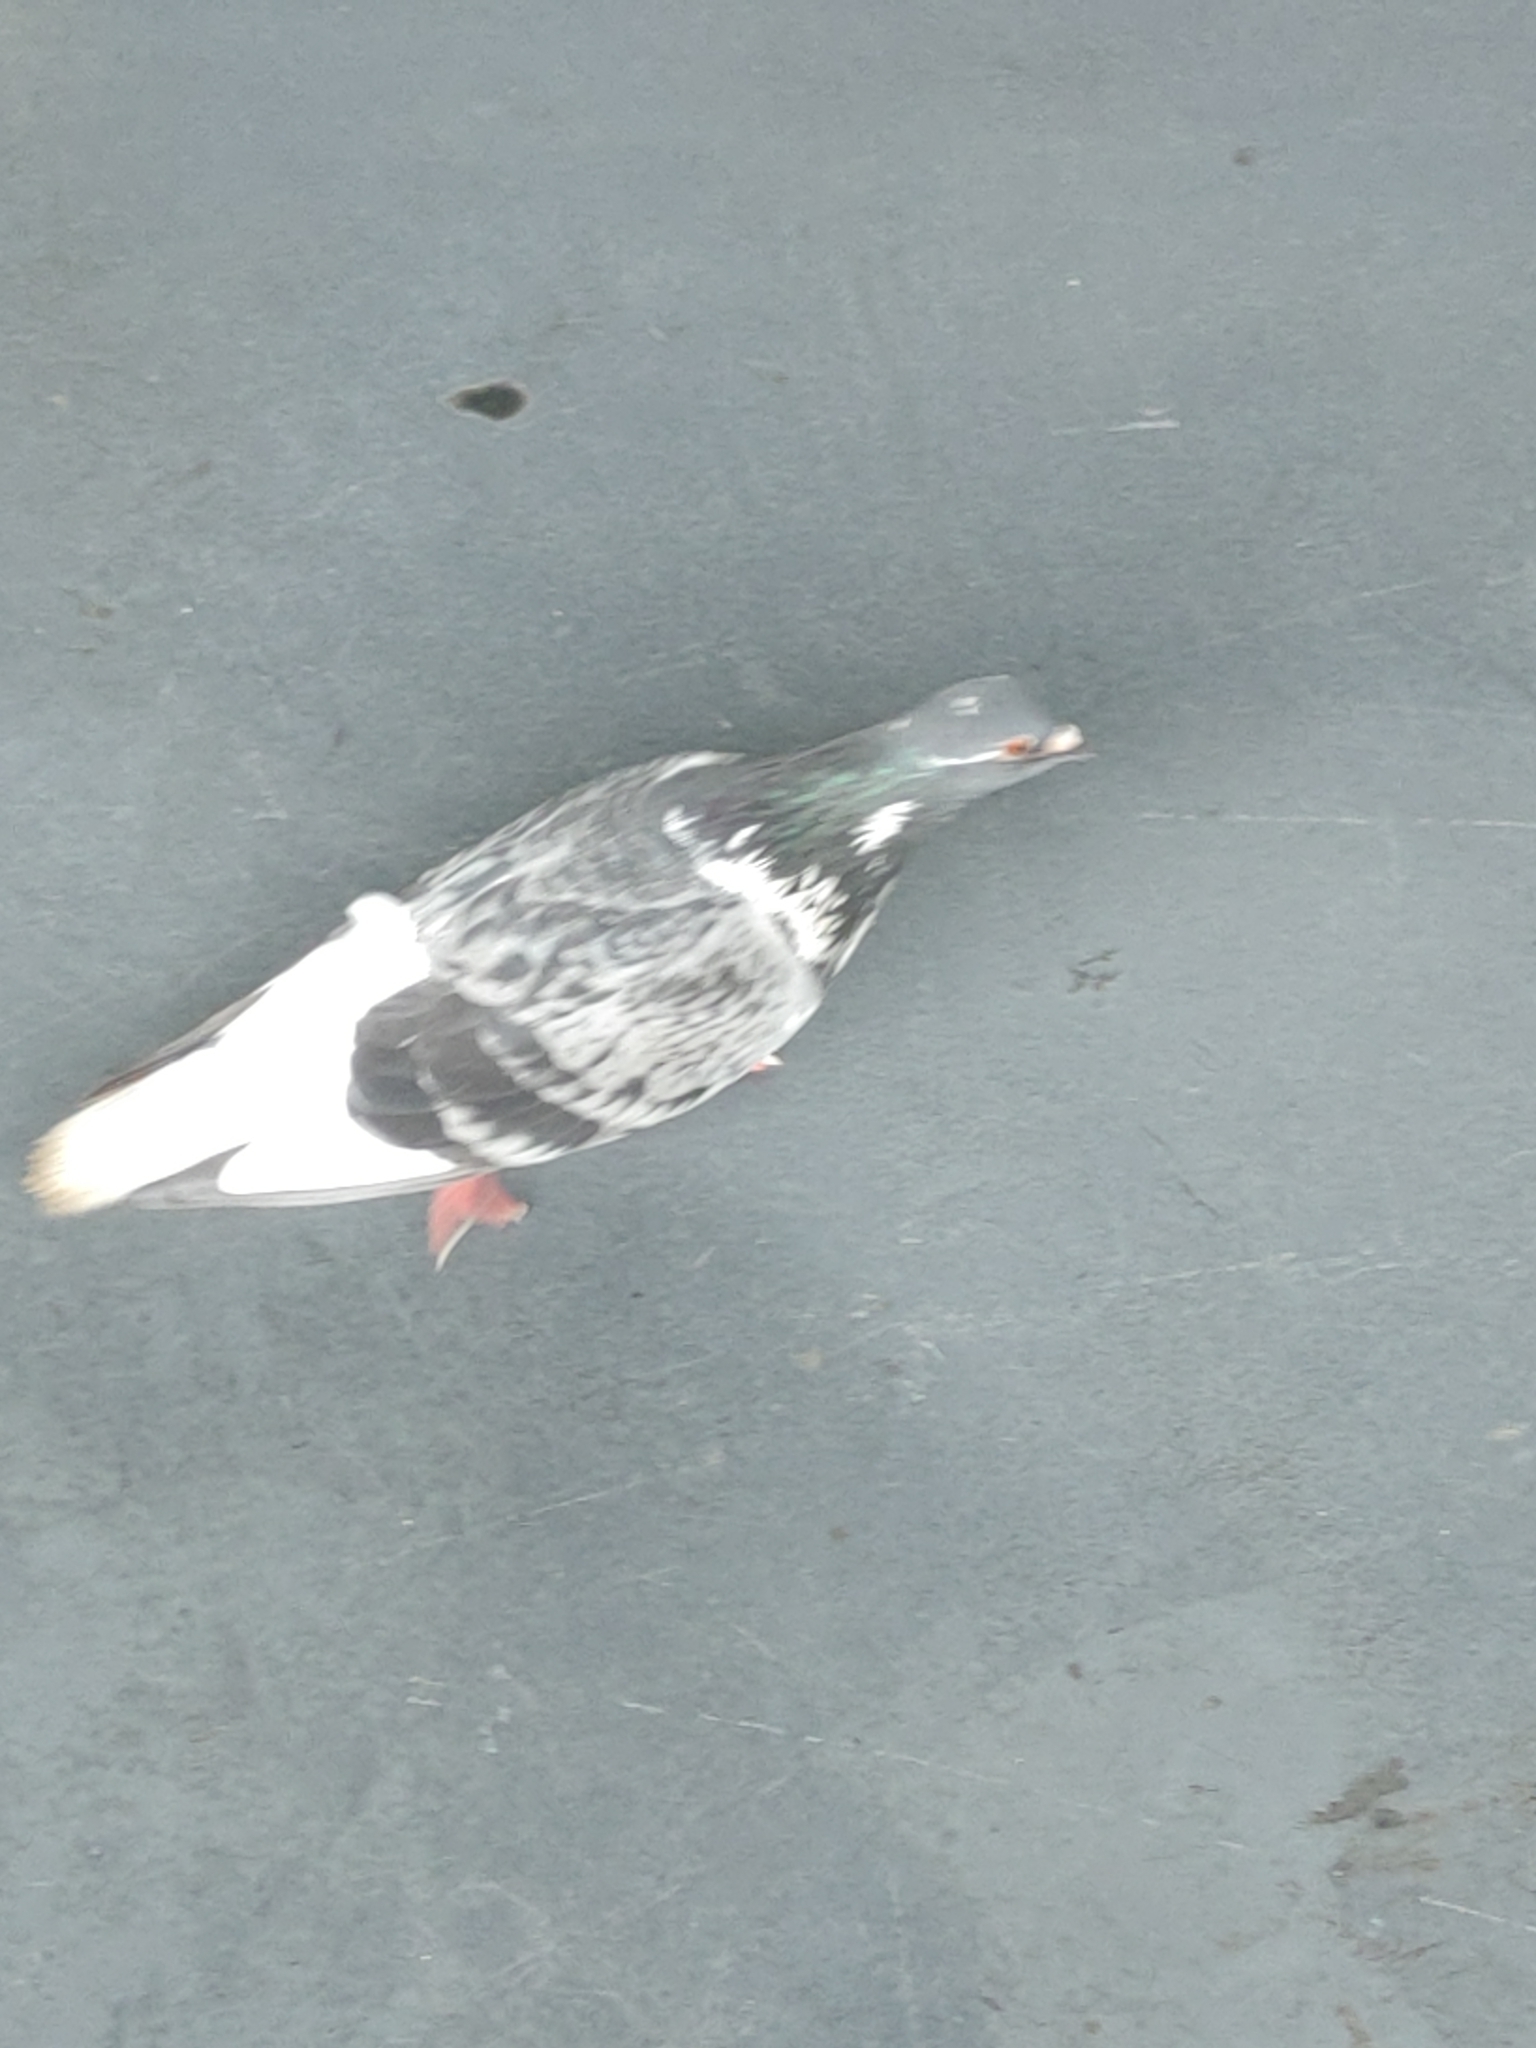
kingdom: Animalia
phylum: Chordata
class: Aves
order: Columbiformes
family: Columbidae
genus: Columba
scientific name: Columba livia
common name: Rock pigeon
